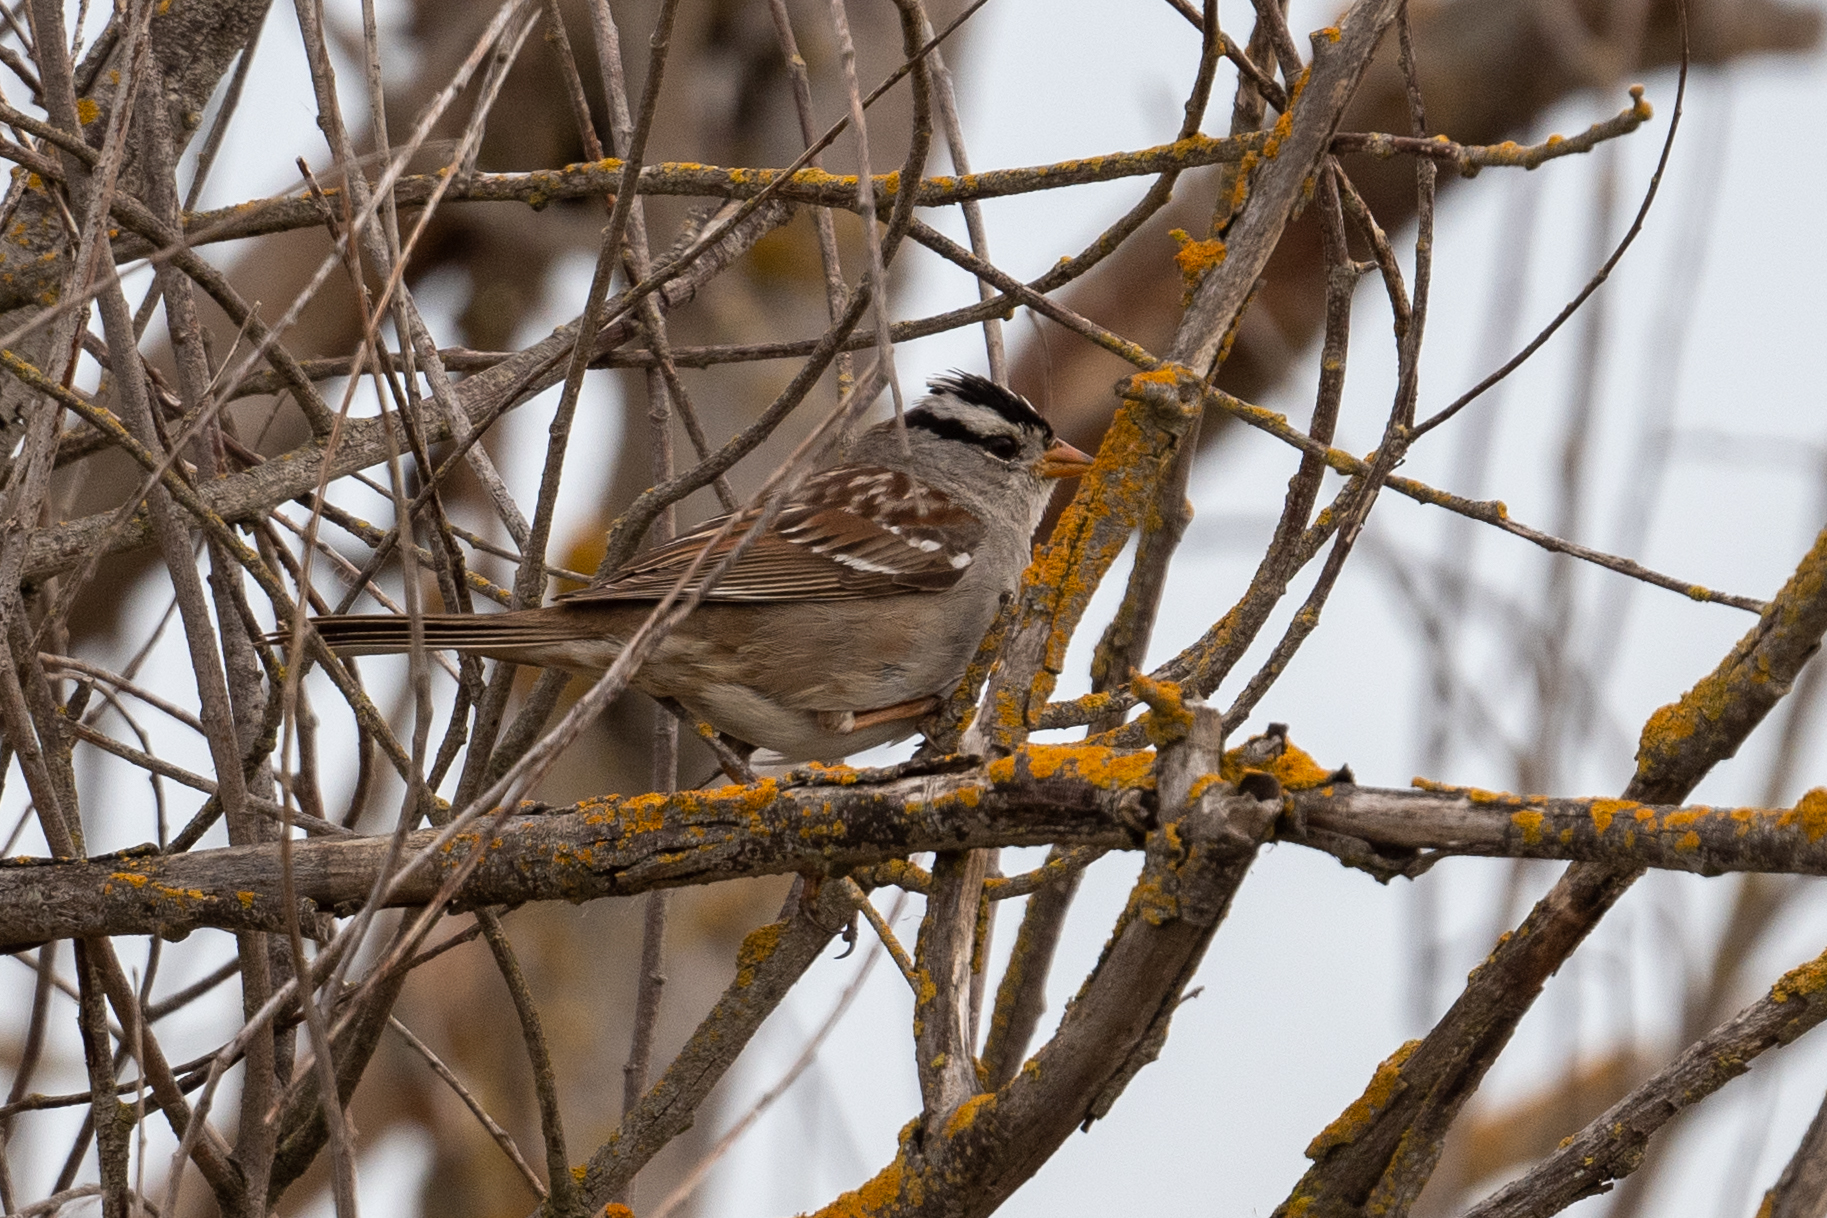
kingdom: Animalia
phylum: Chordata
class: Aves
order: Passeriformes
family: Passerellidae
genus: Zonotrichia
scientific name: Zonotrichia leucophrys
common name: White-crowned sparrow
